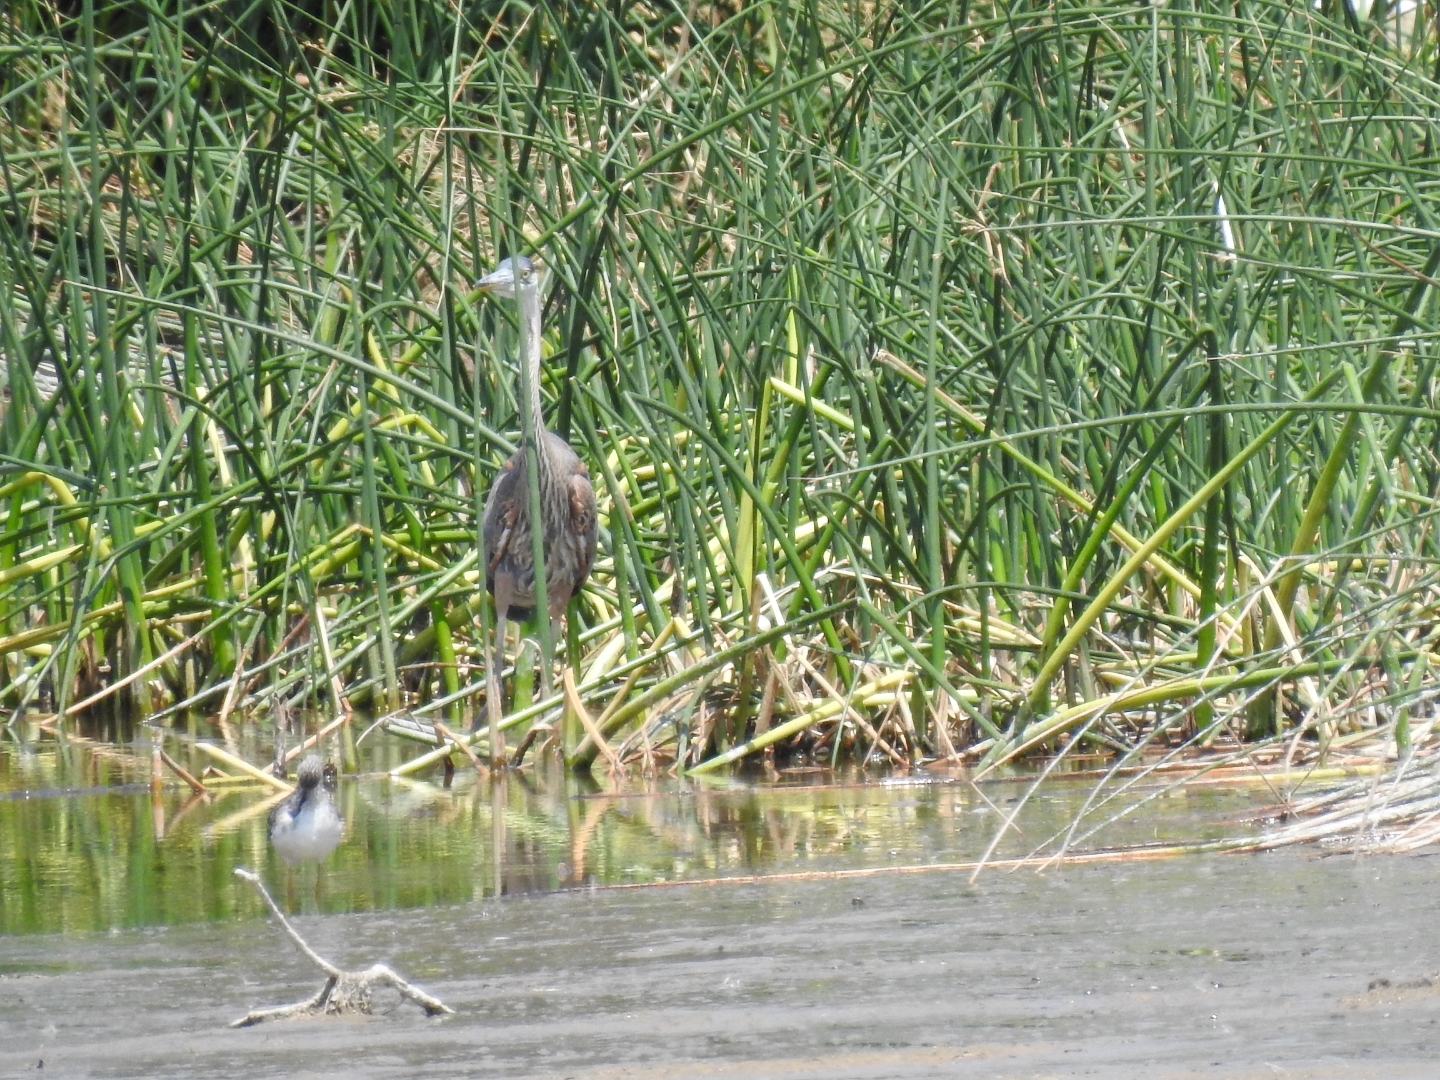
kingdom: Animalia
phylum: Chordata
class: Aves
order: Pelecaniformes
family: Ardeidae
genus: Ardea
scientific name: Ardea herodias
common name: Great blue heron
